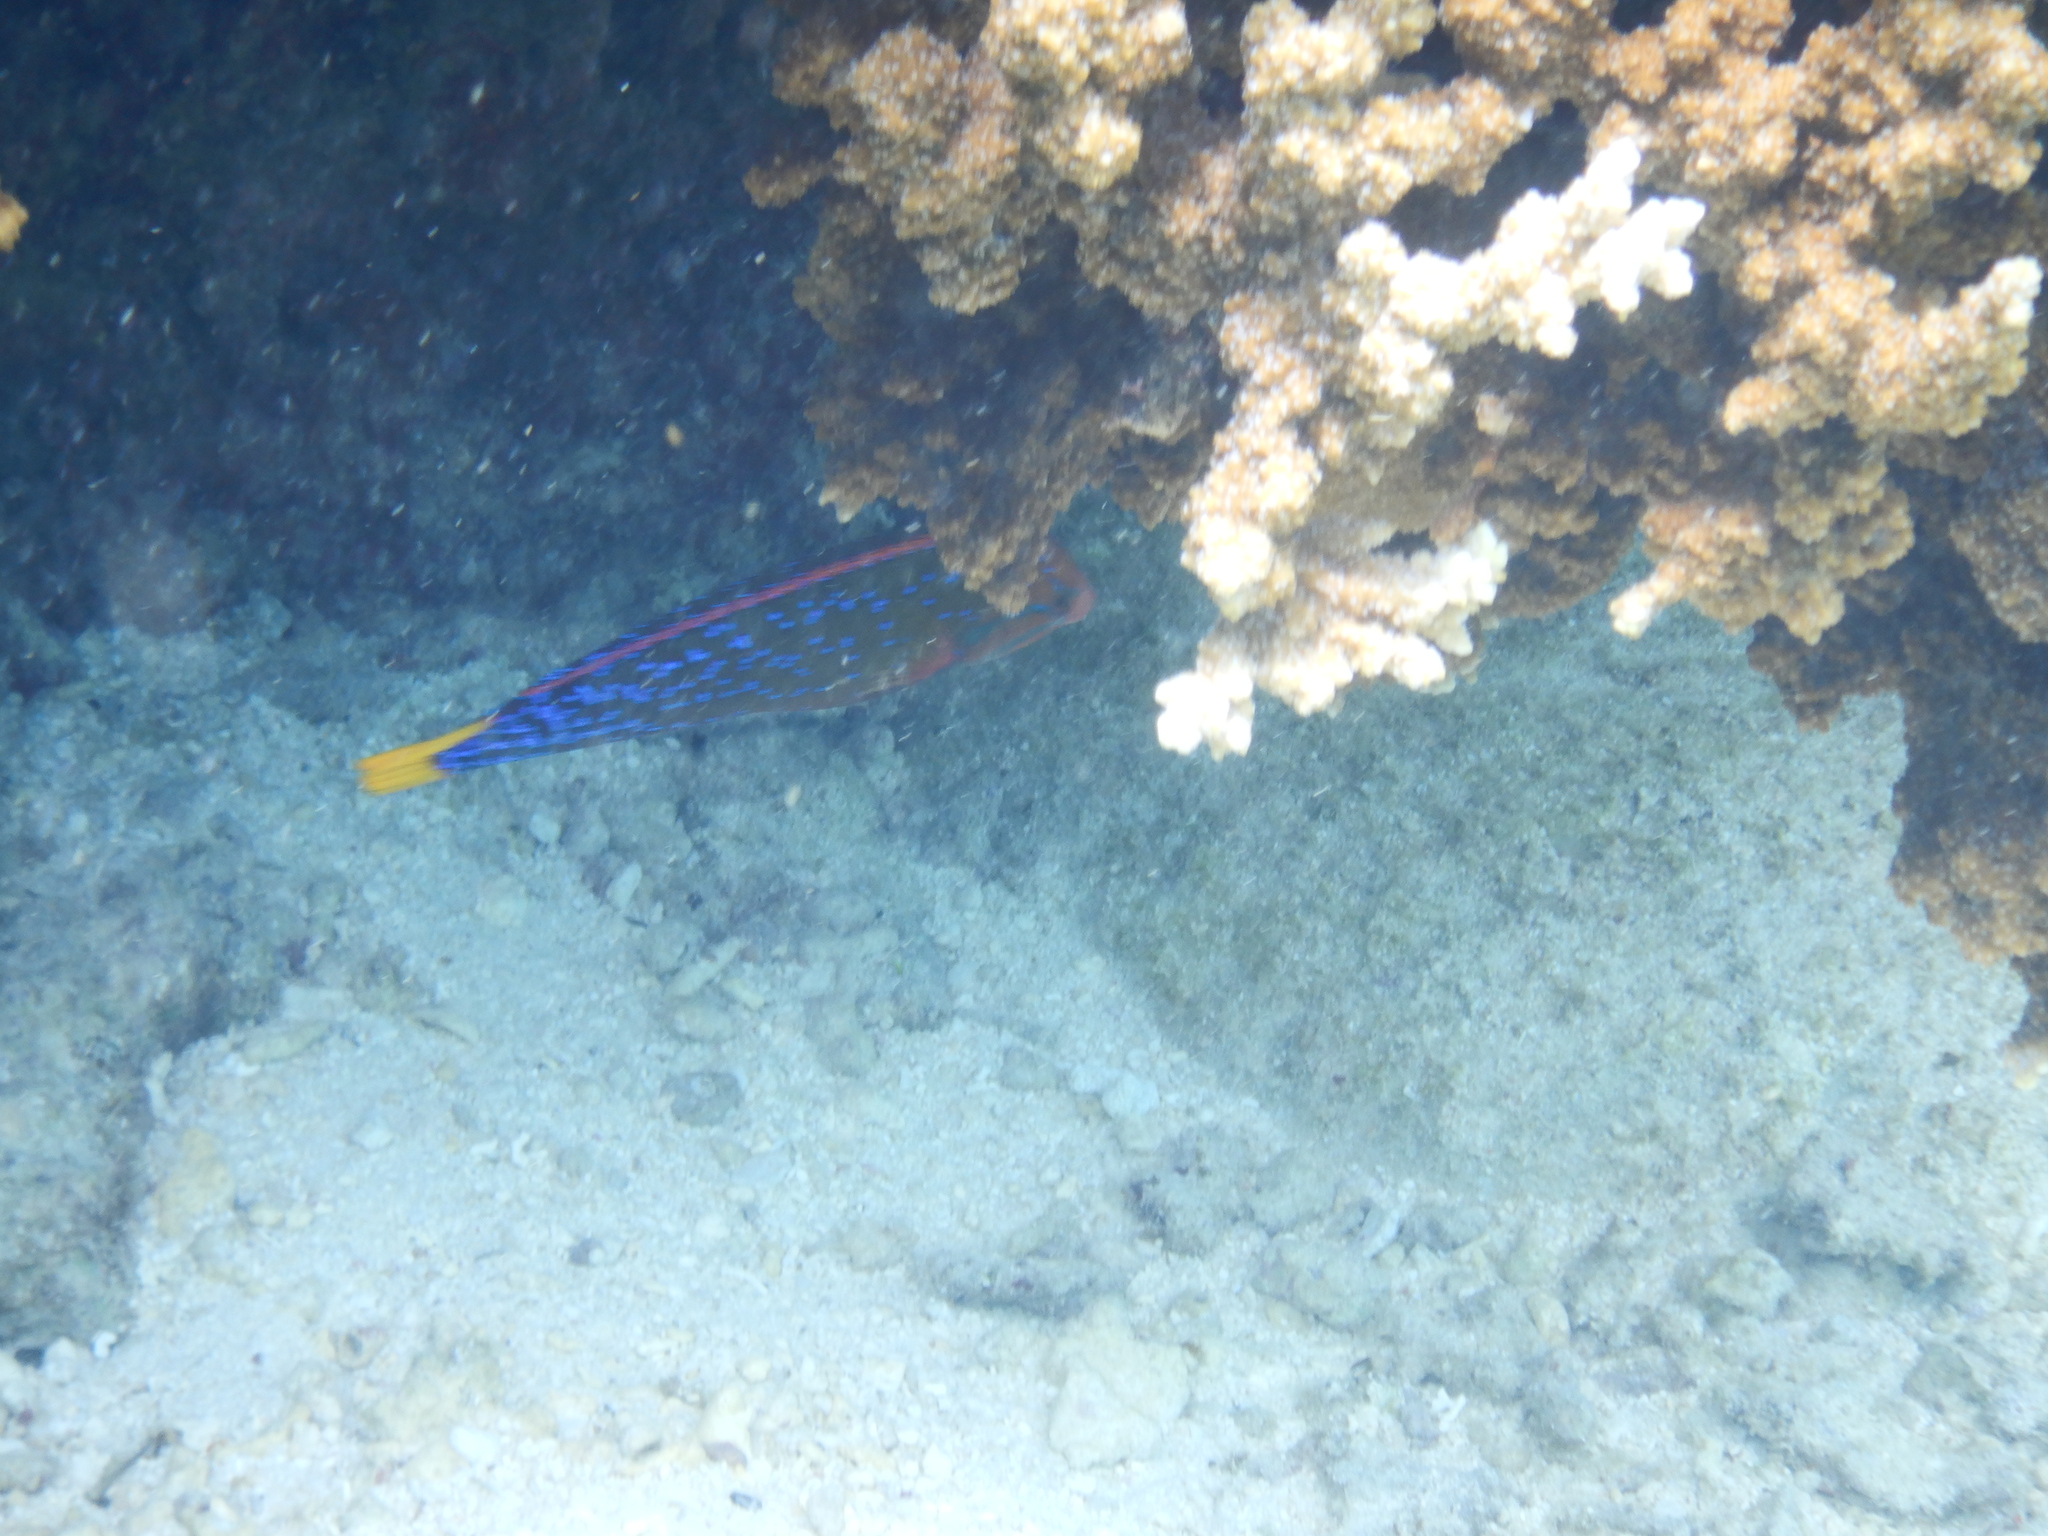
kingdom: Animalia
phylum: Chordata
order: Perciformes
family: Labridae
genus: Coris
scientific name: Coris gaimard
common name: Yellowtail coris
